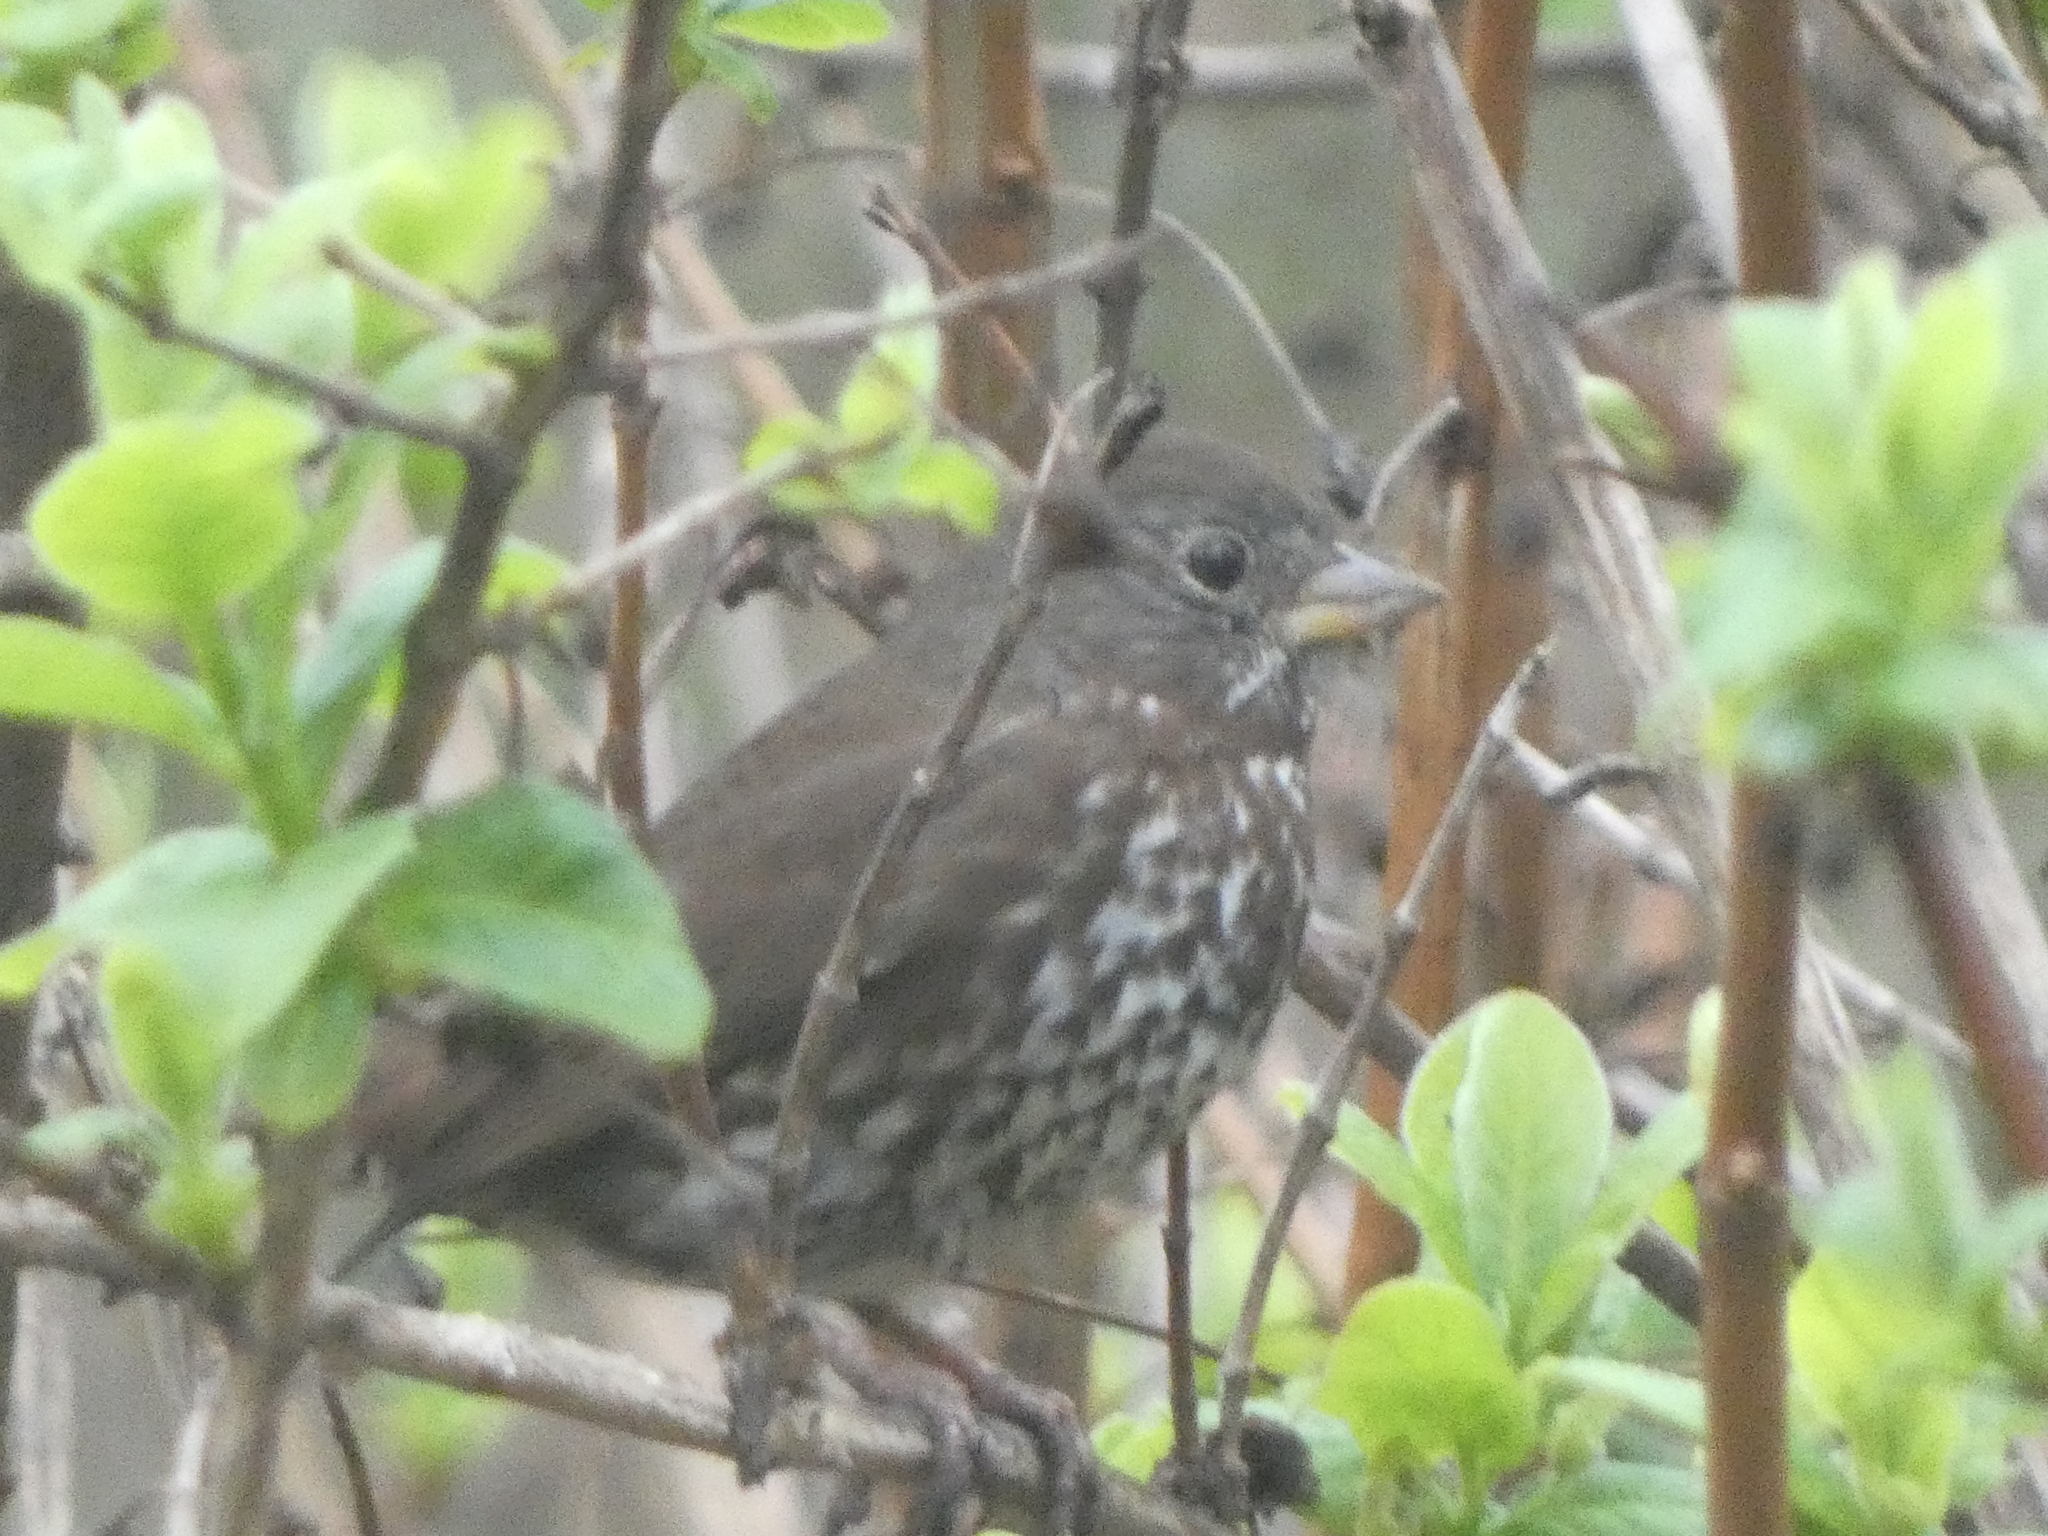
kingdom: Animalia
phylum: Chordata
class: Aves
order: Passeriformes
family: Passerellidae
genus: Passerella
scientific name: Passerella iliaca
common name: Fox sparrow
